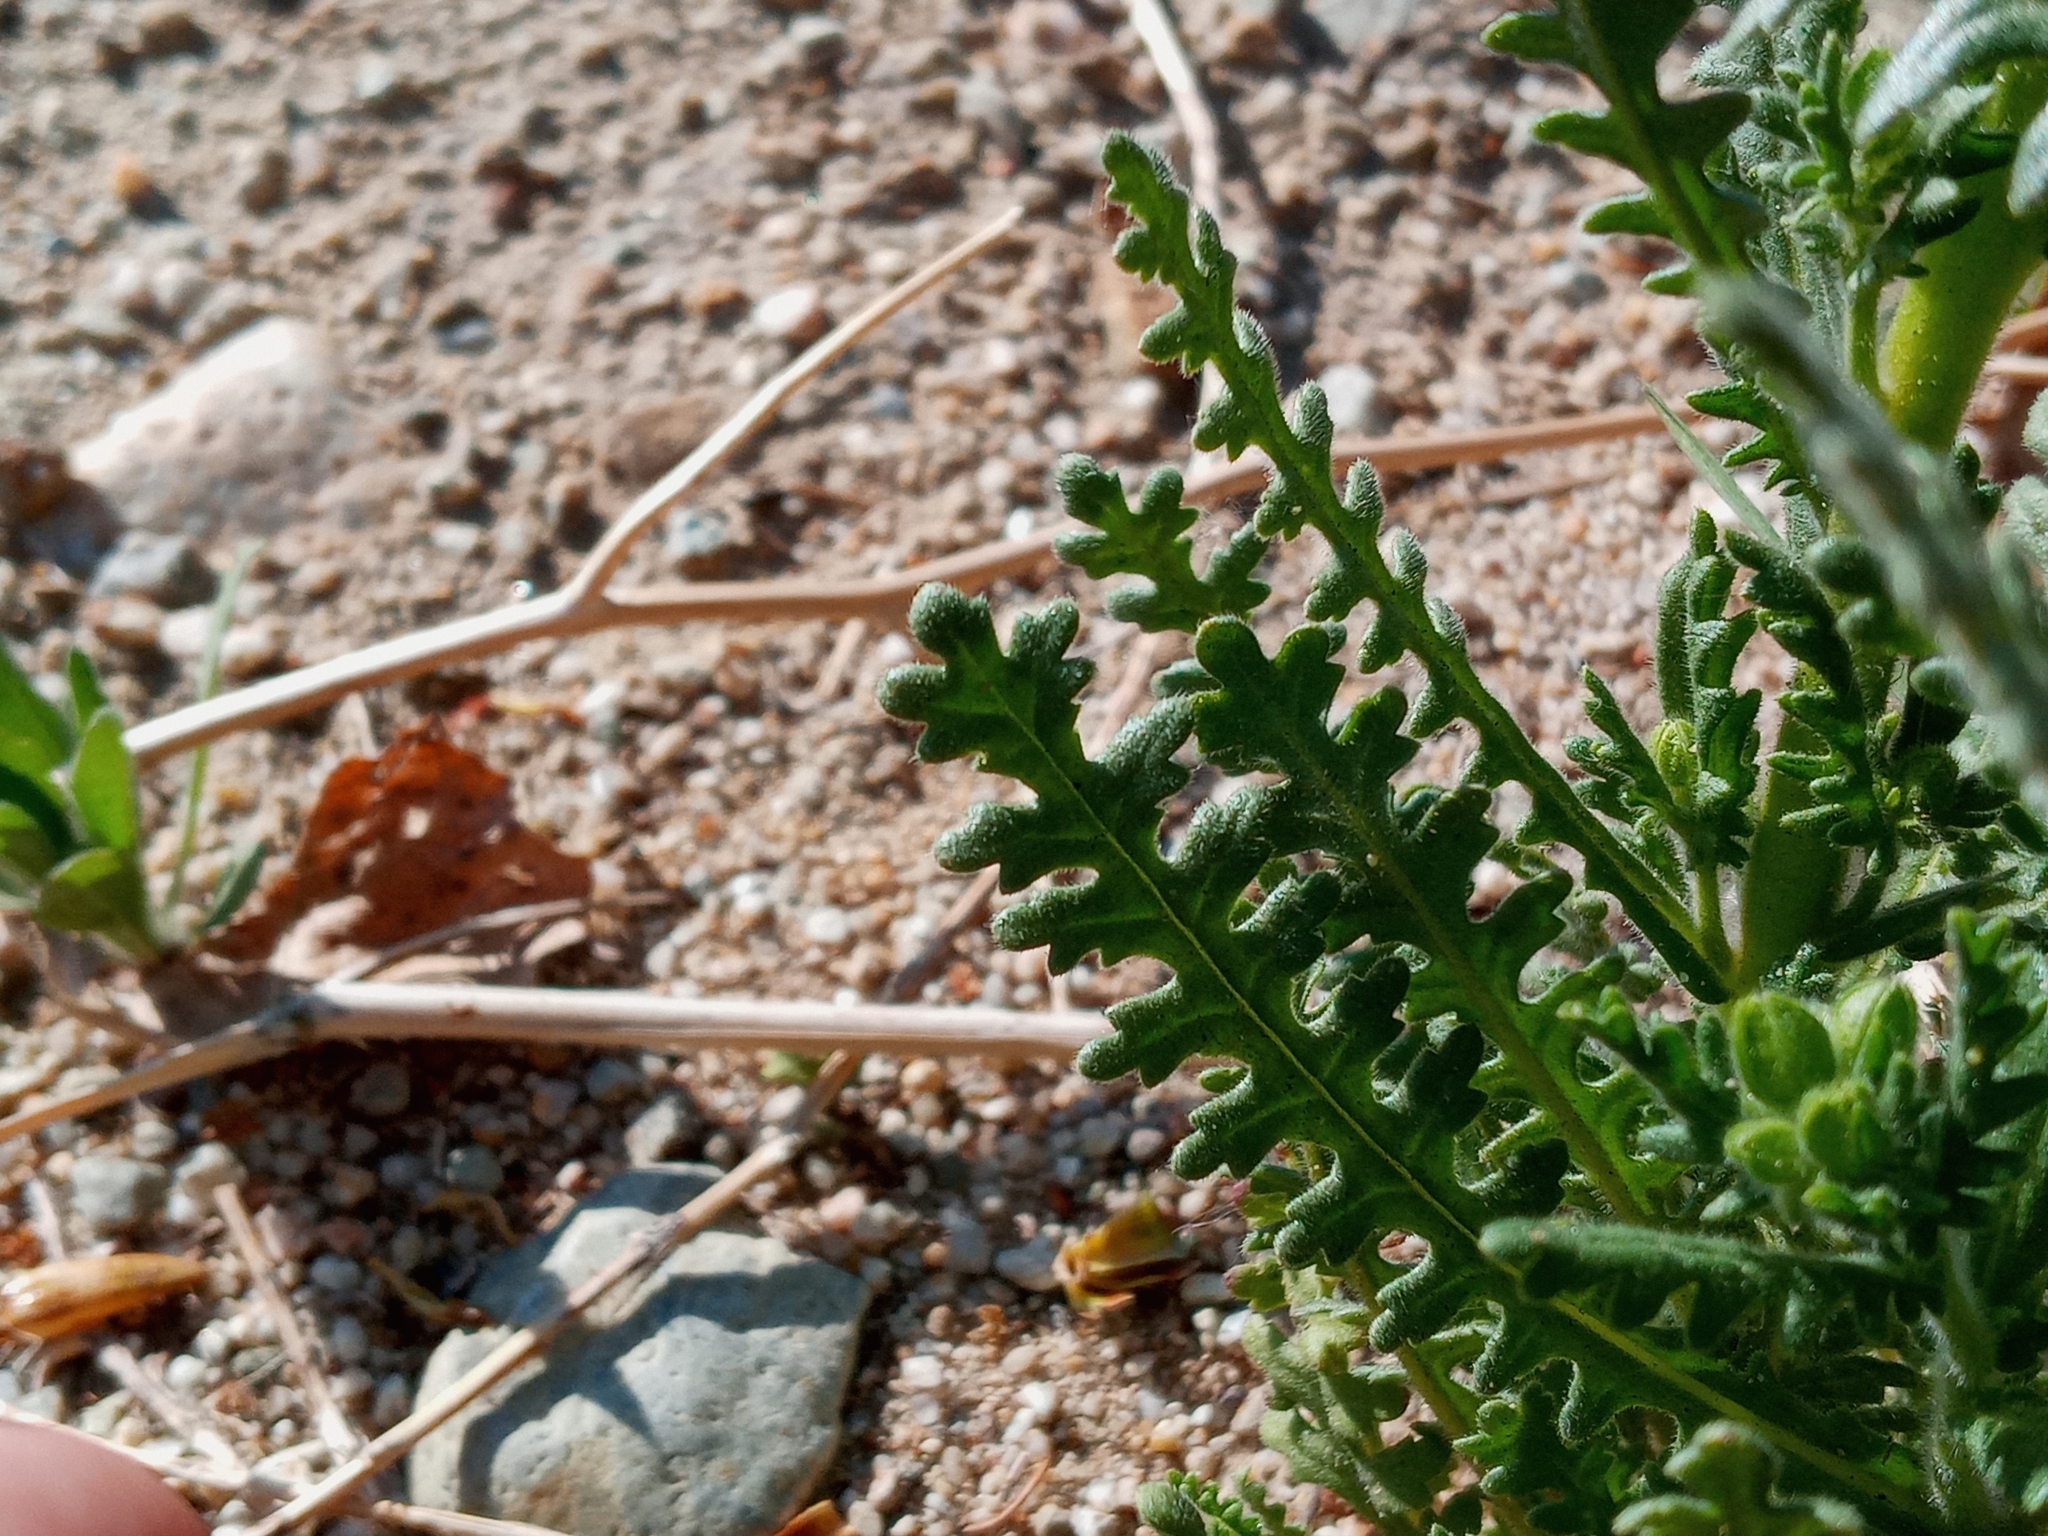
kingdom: Plantae
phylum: Tracheophyta
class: Magnoliopsida
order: Boraginales
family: Hydrophyllaceae
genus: Emmenanthe
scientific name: Emmenanthe penduliflora
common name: Whispering-bells
